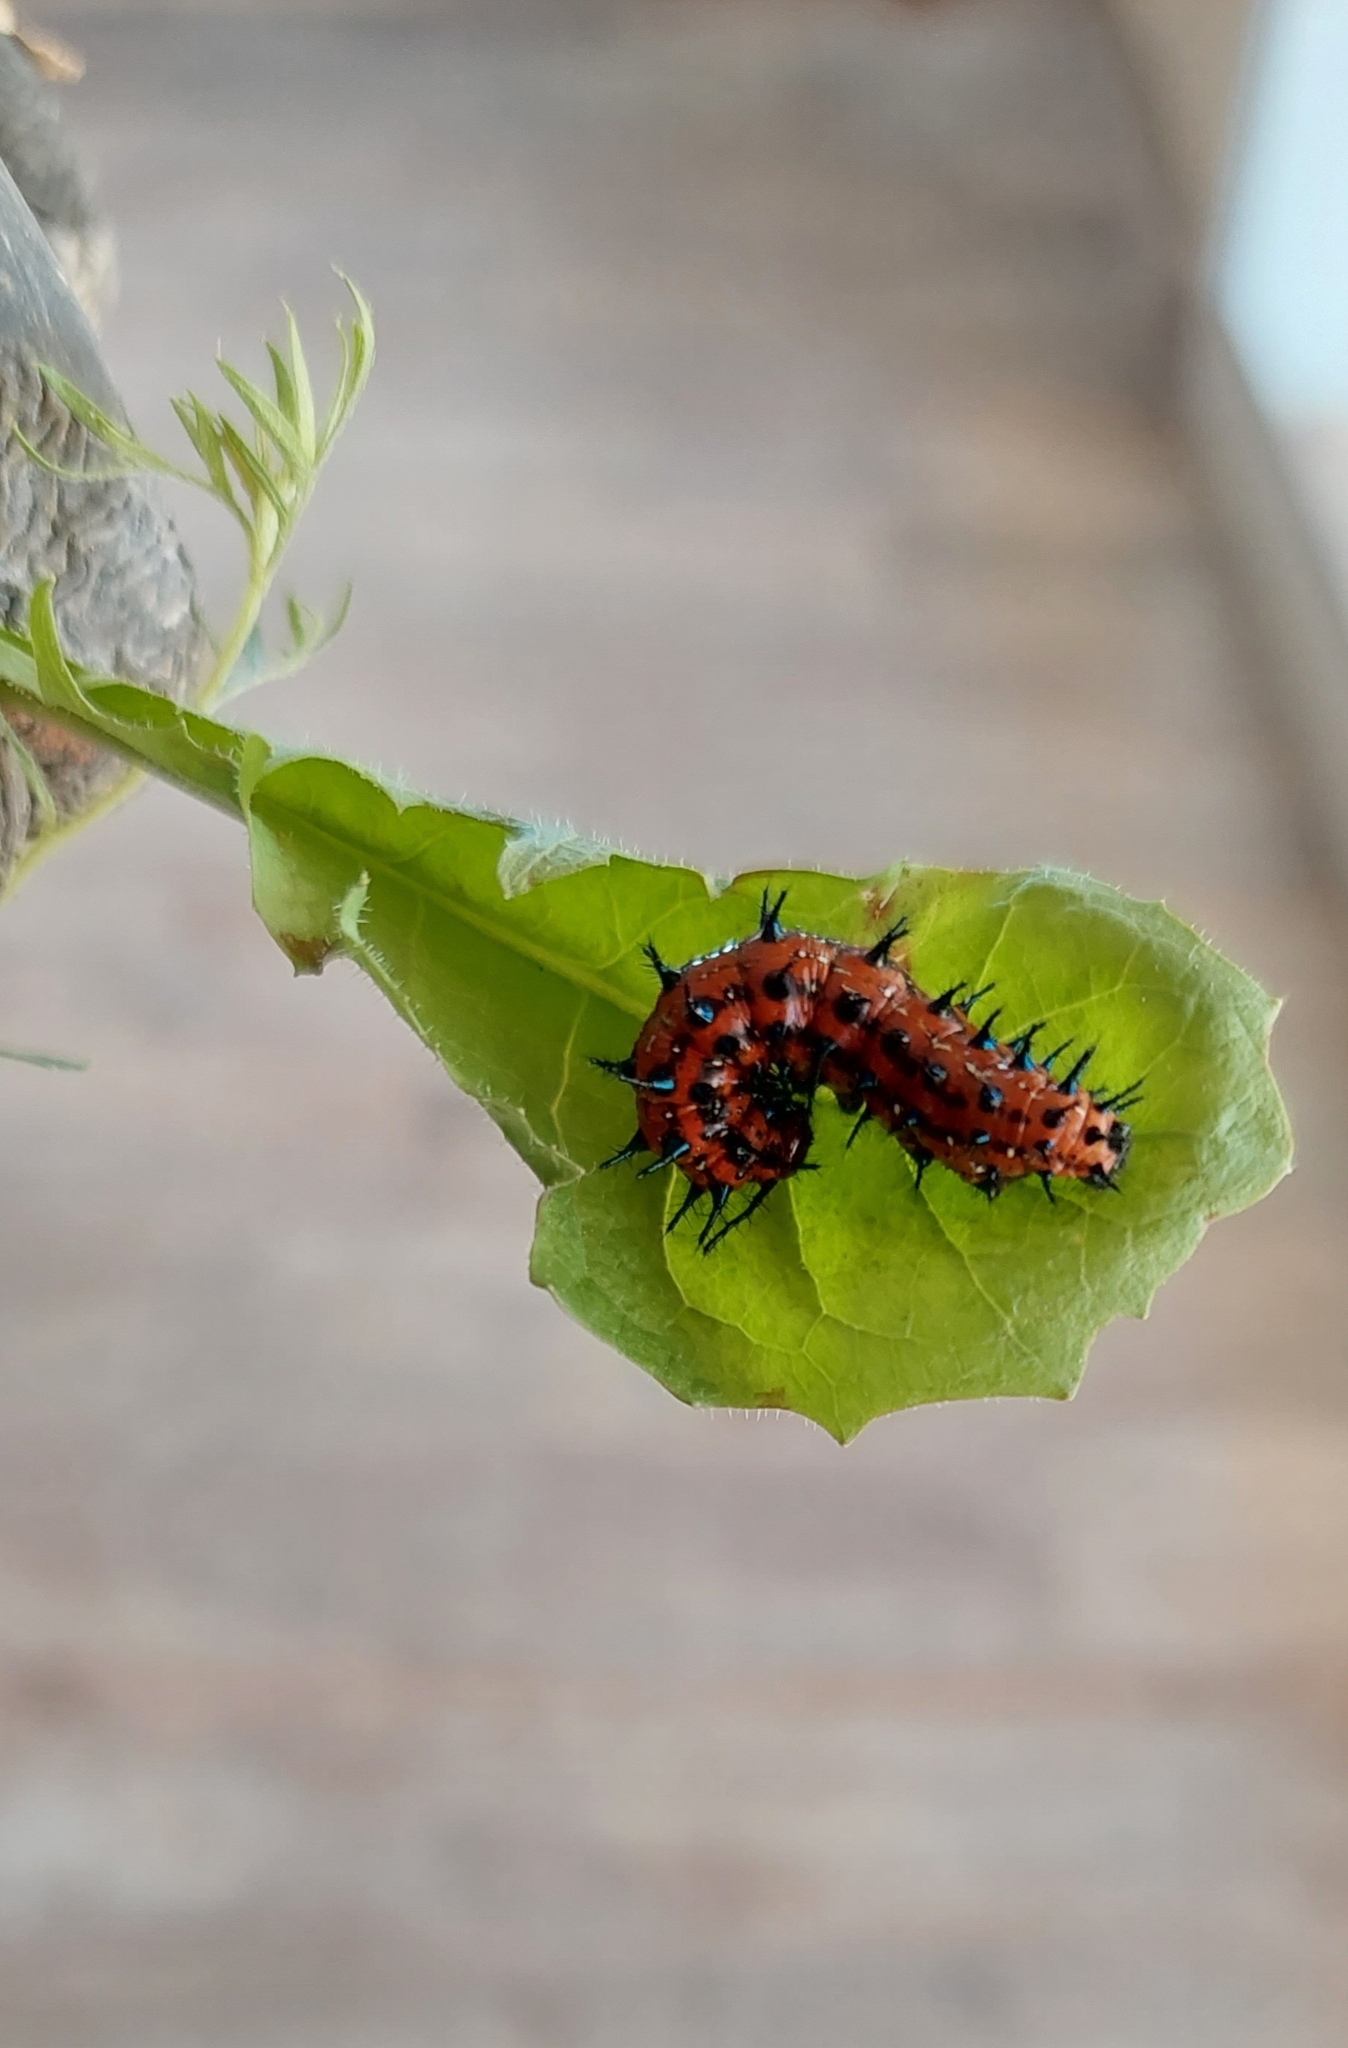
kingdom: Animalia
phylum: Arthropoda
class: Insecta
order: Lepidoptera
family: Nymphalidae
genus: Euptoieta
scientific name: Euptoieta hortensia
